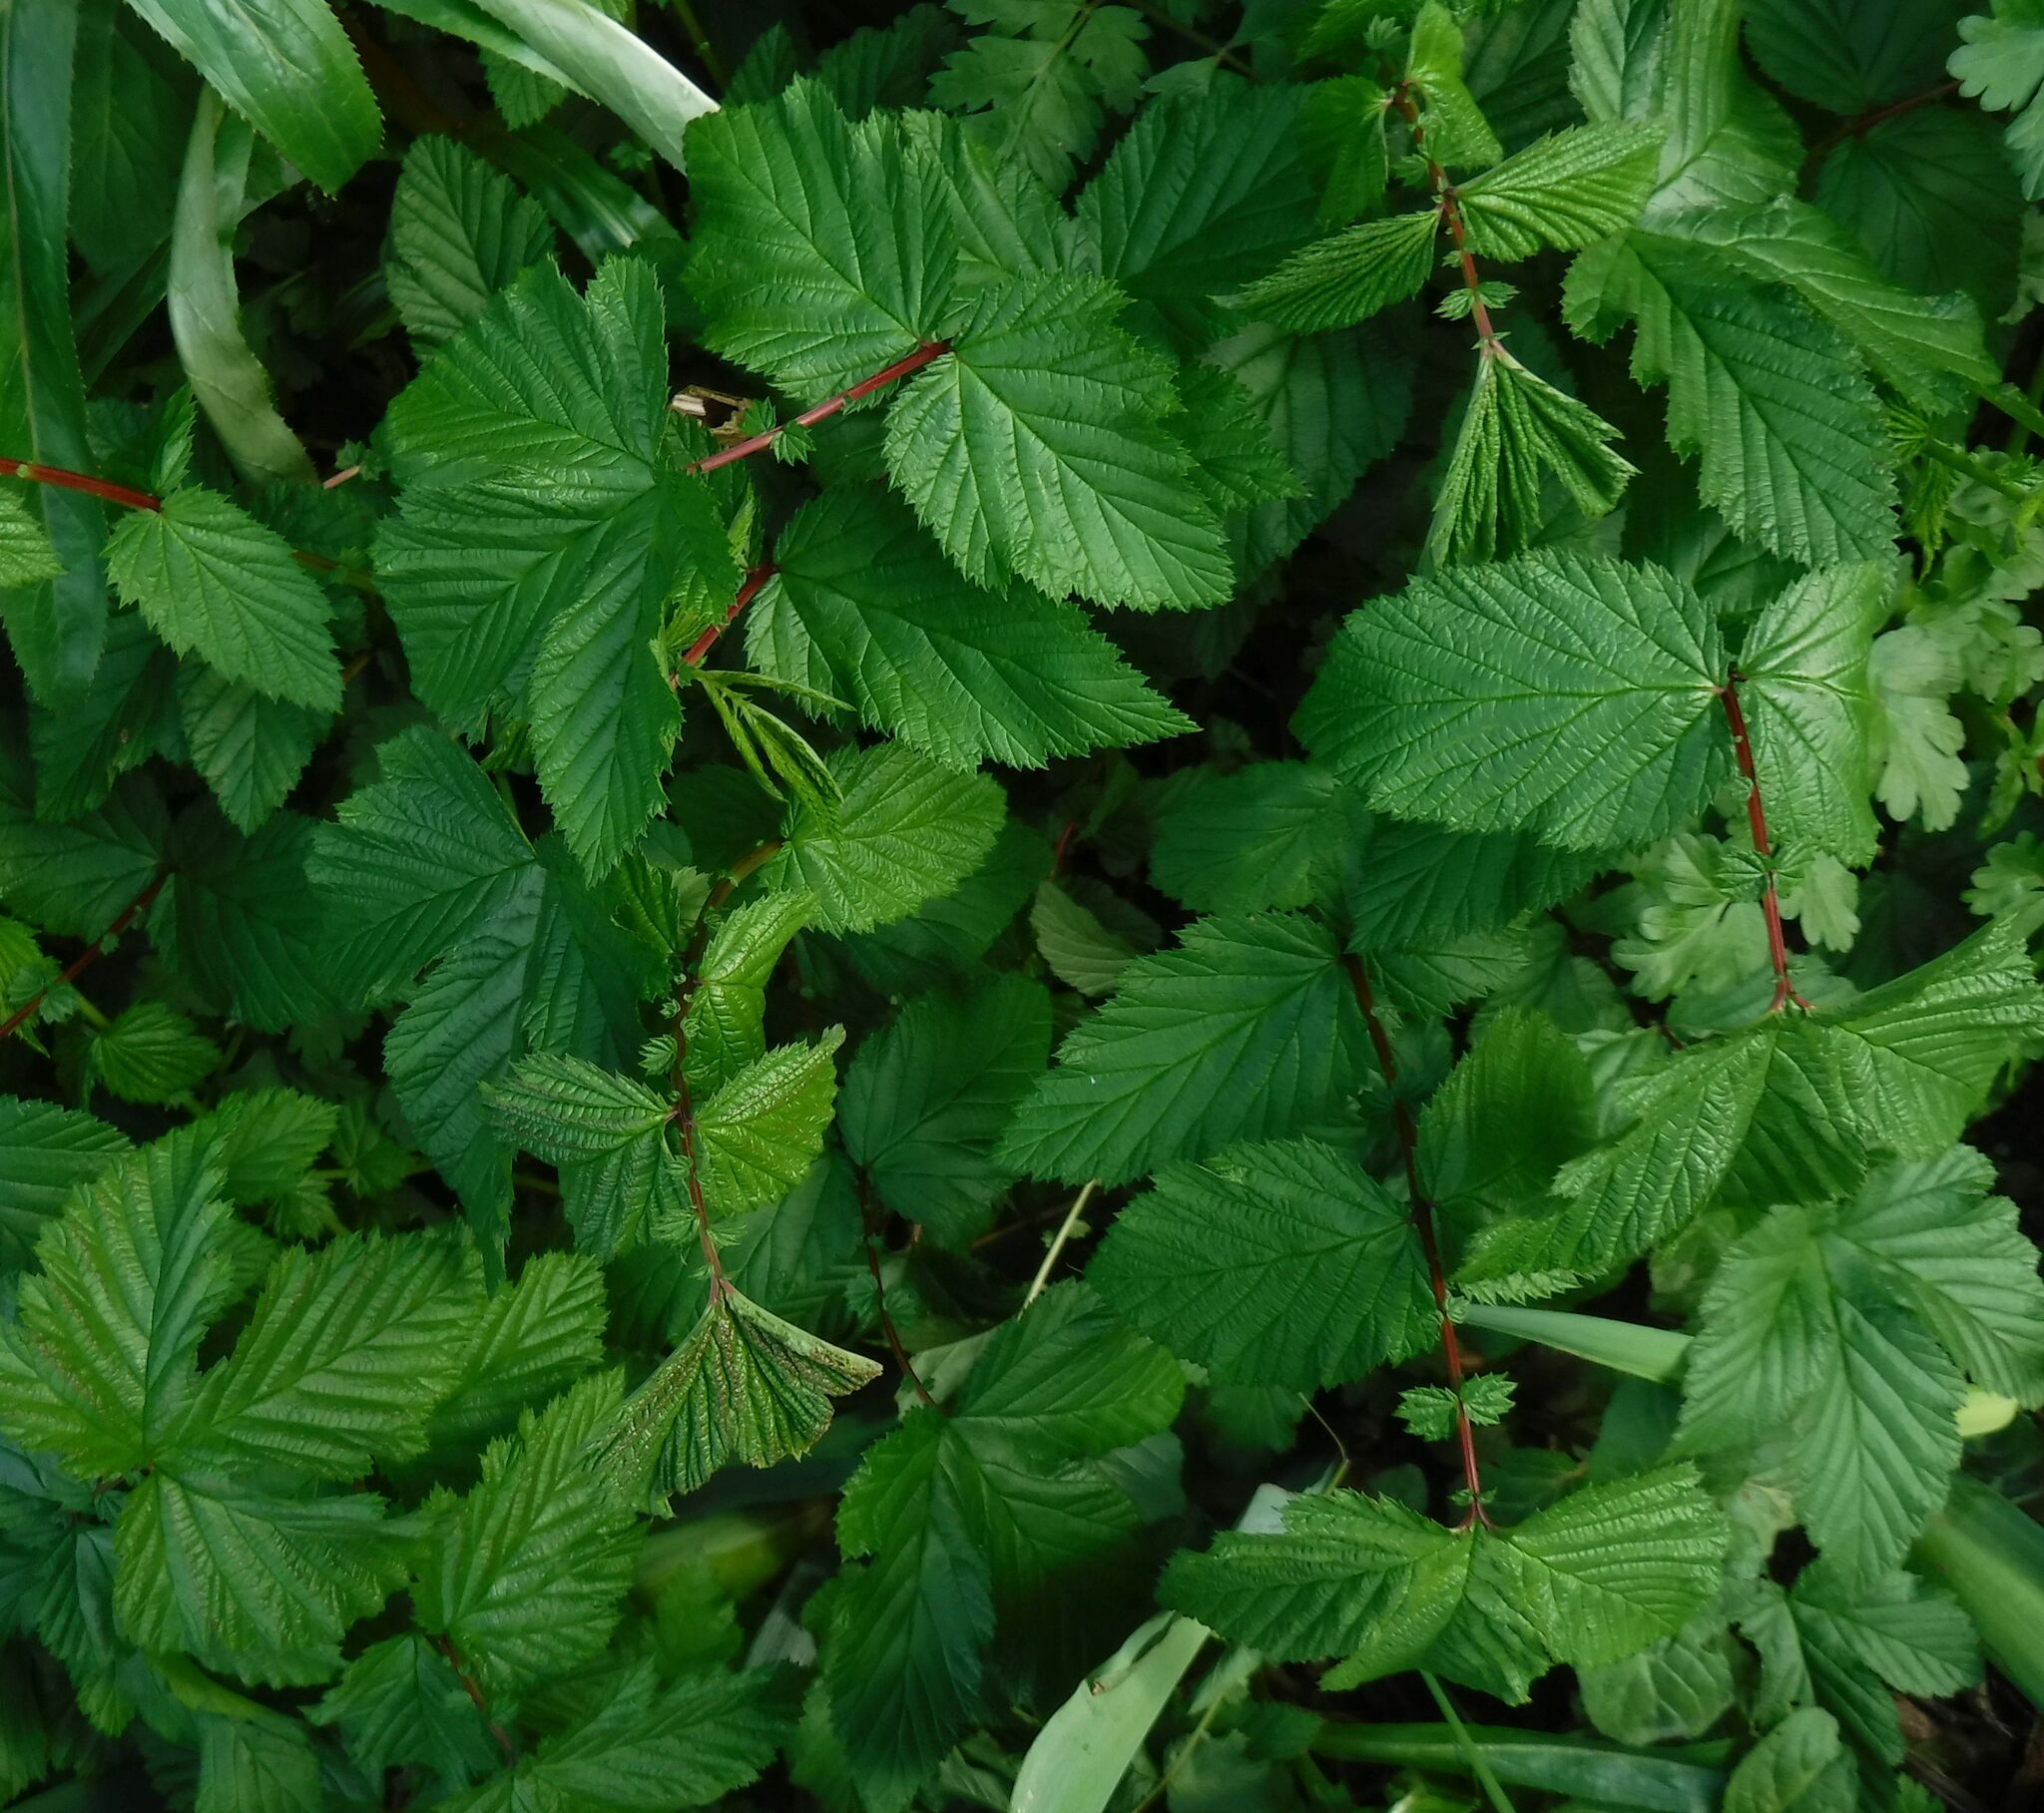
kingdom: Plantae
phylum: Tracheophyta
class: Magnoliopsida
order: Rosales
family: Rosaceae
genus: Filipendula
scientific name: Filipendula ulmaria
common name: Meadowsweet
